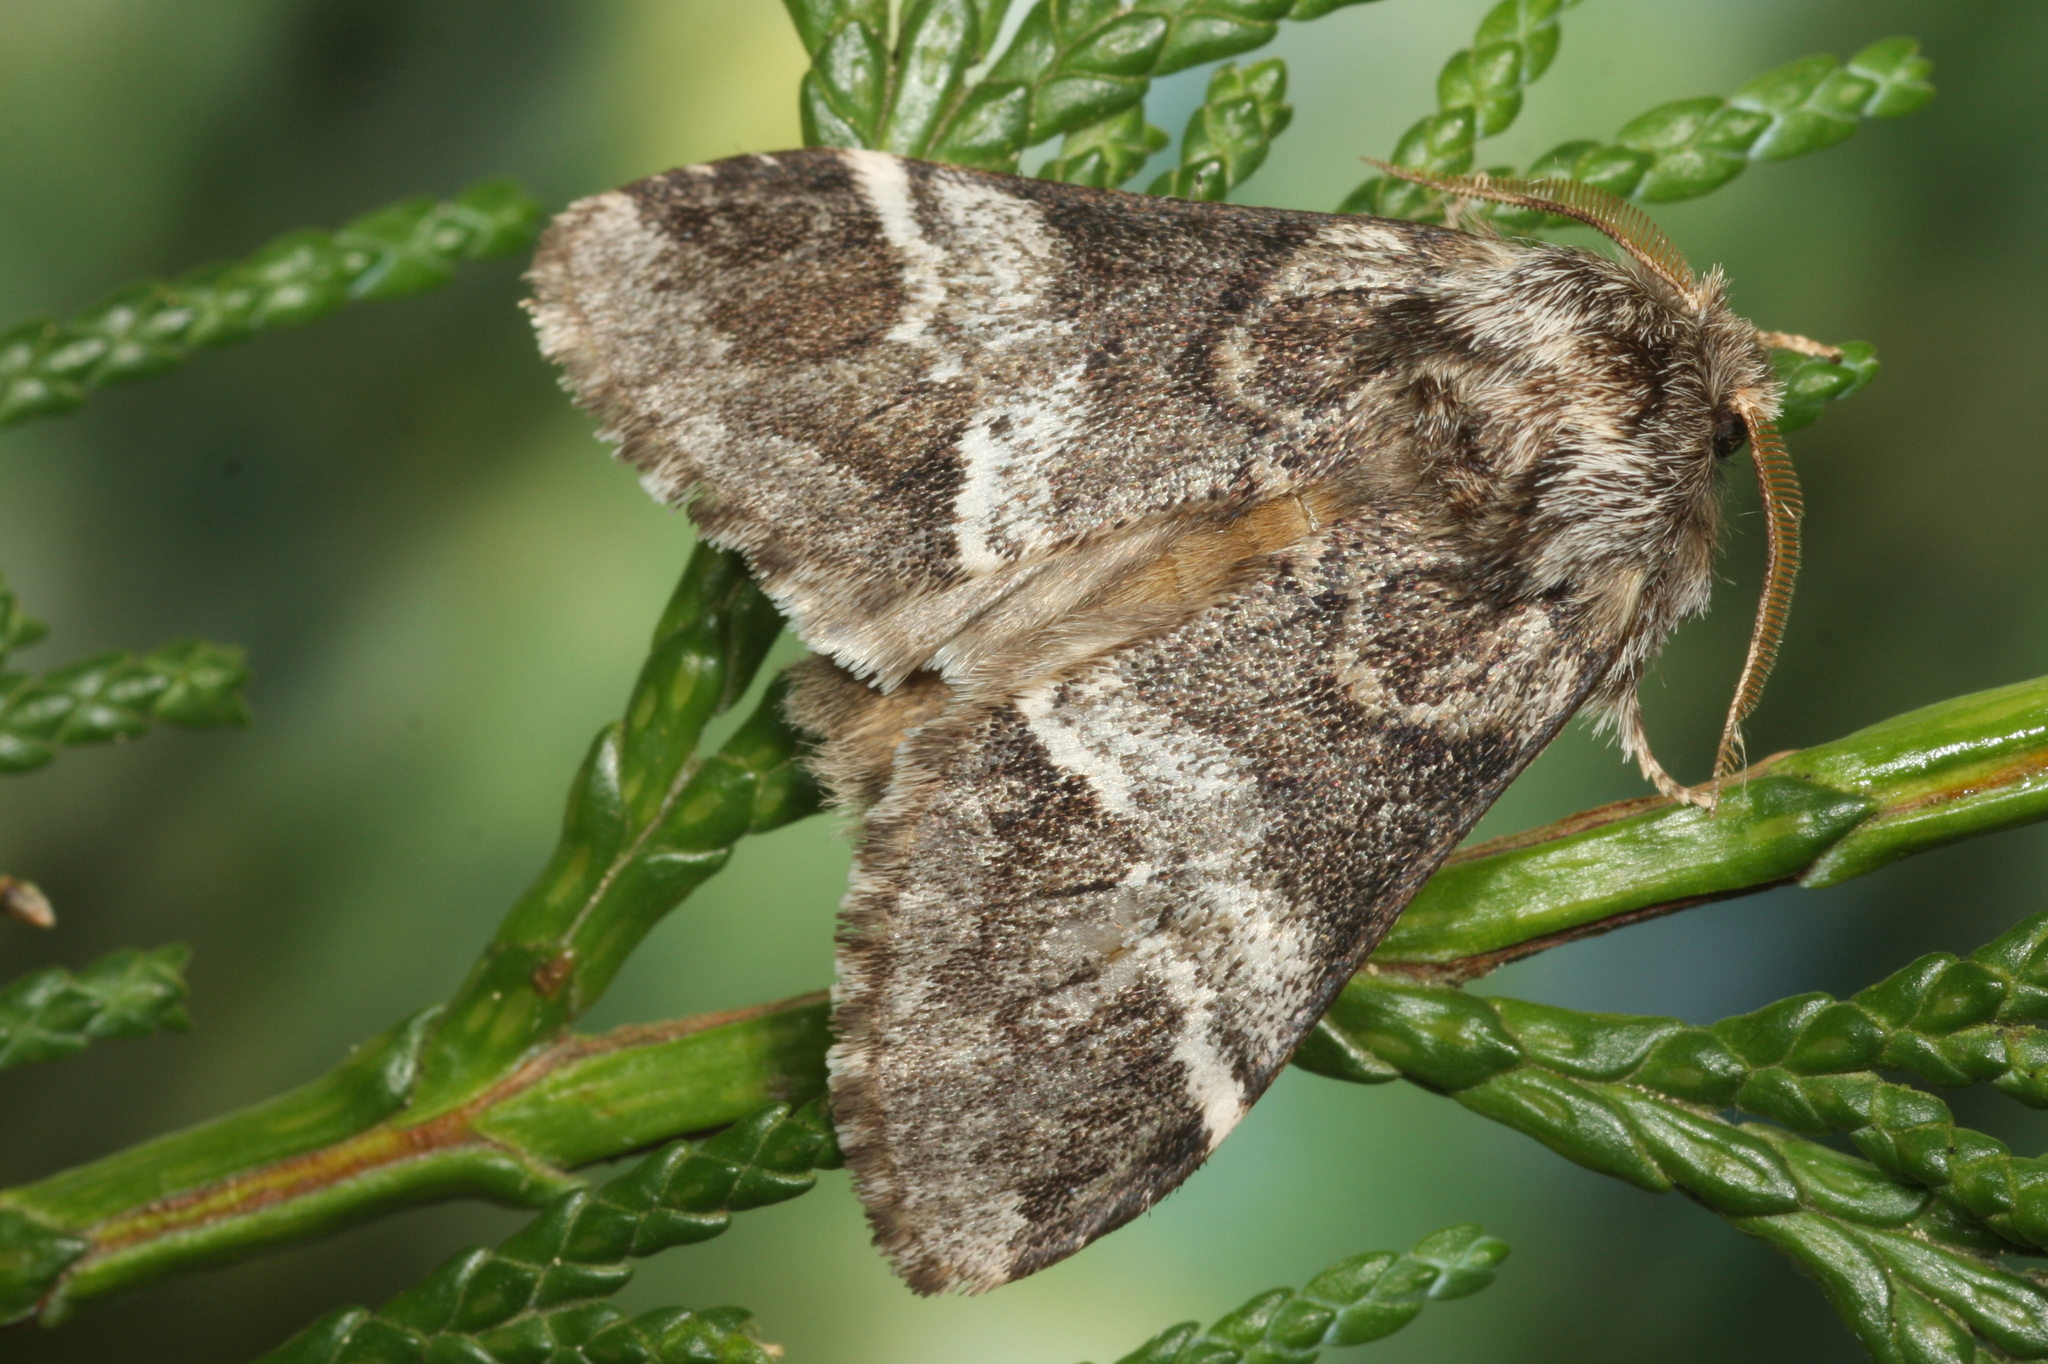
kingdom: Animalia
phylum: Arthropoda
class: Insecta
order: Lepidoptera
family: Notodontidae
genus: Drymonia
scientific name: Drymonia dodonaea
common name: Marbled brown
